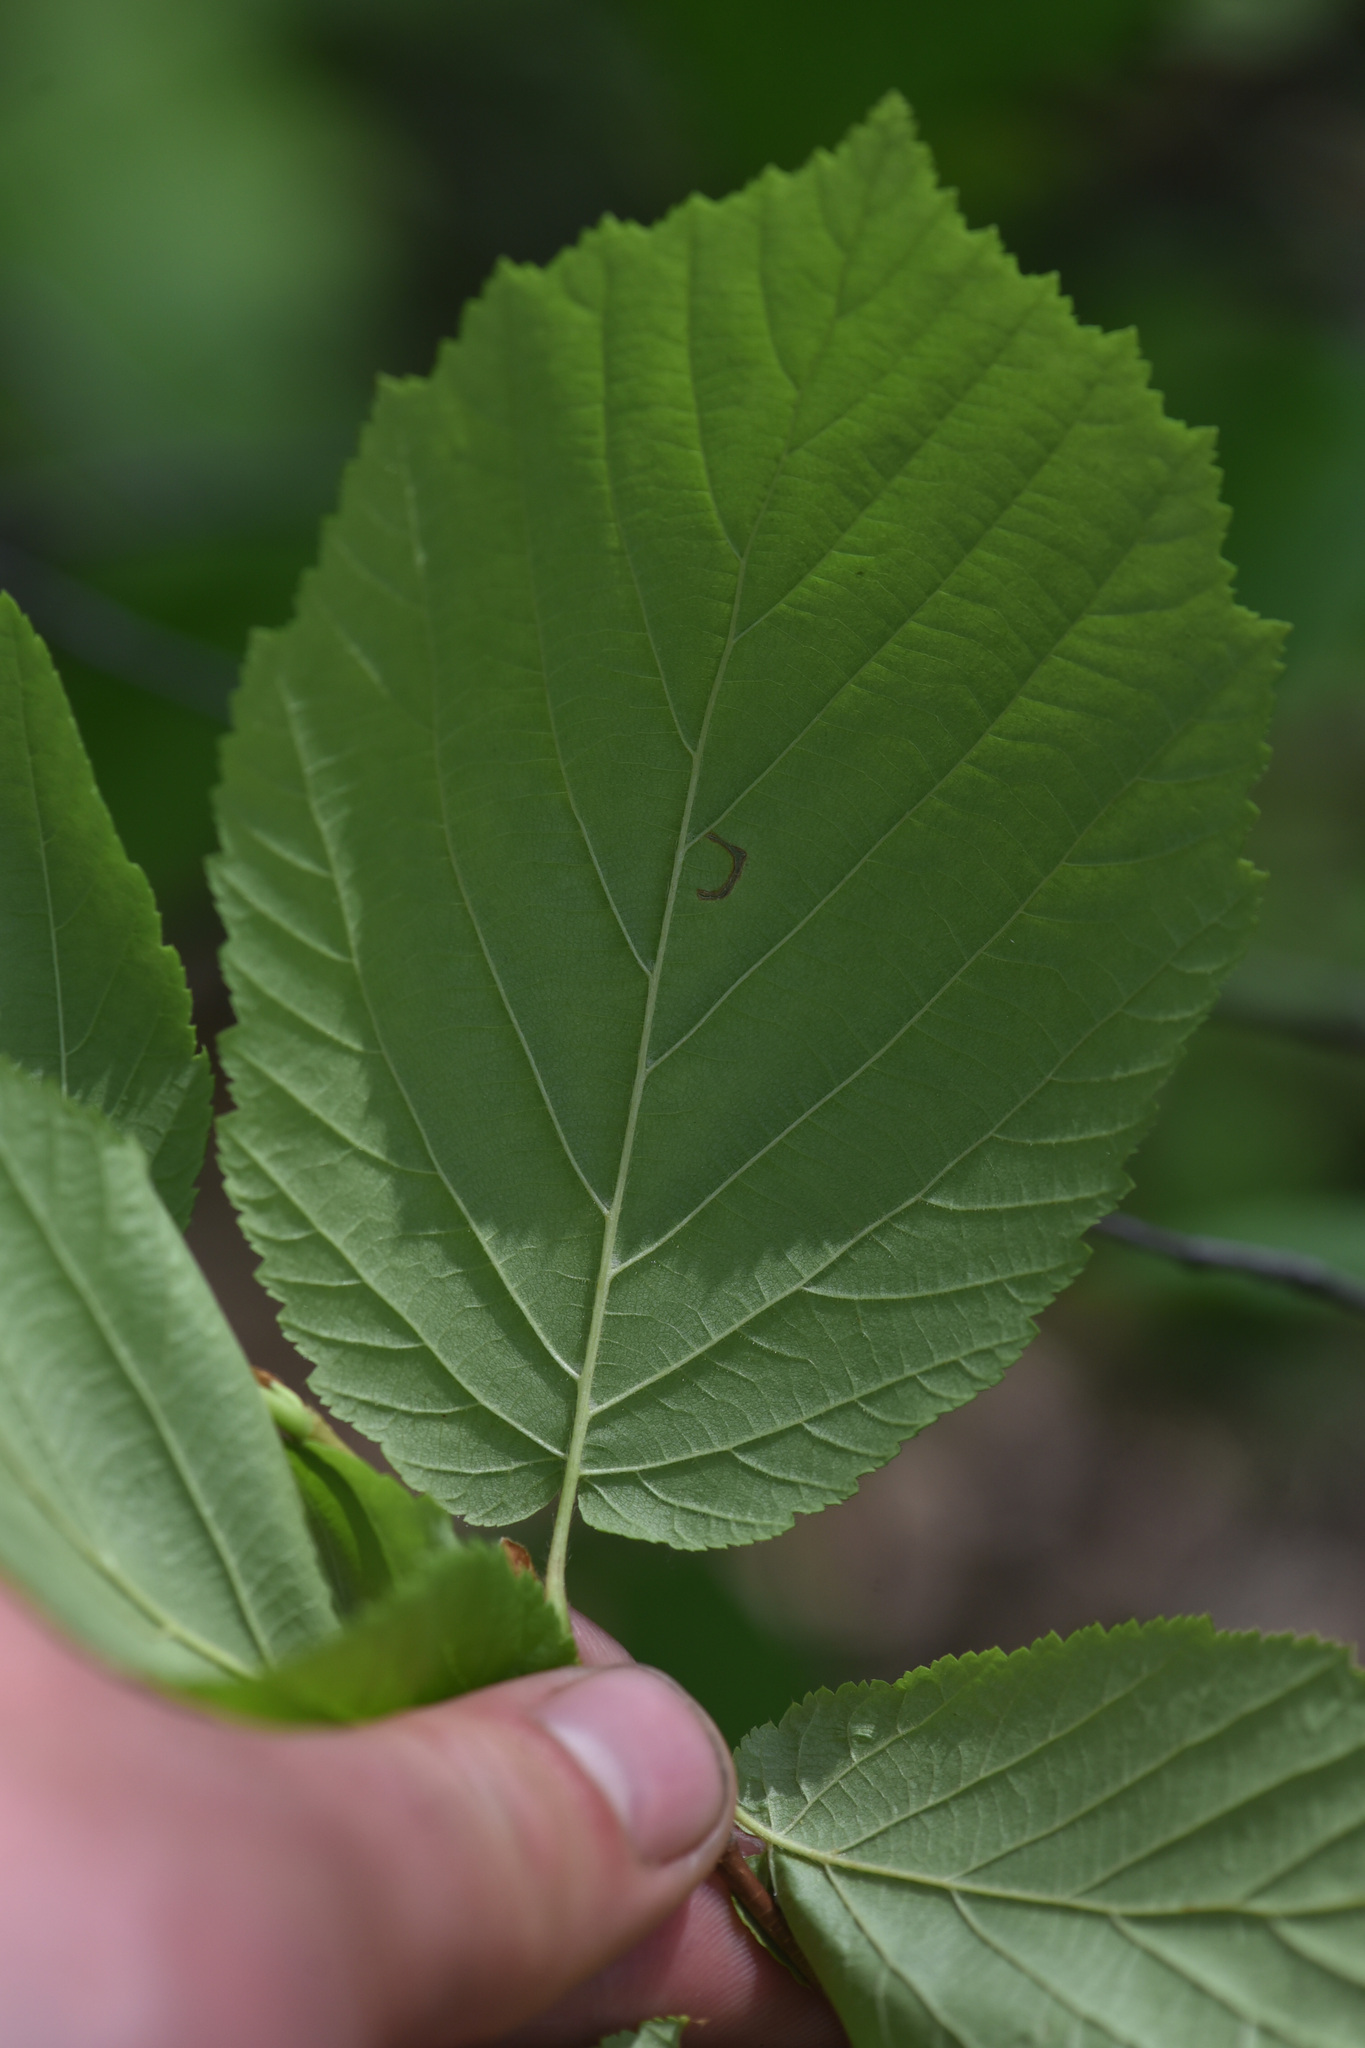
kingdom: Plantae
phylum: Tracheophyta
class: Magnoliopsida
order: Fagales
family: Betulaceae
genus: Corylus
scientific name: Corylus cornuta
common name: Beaked hazel
